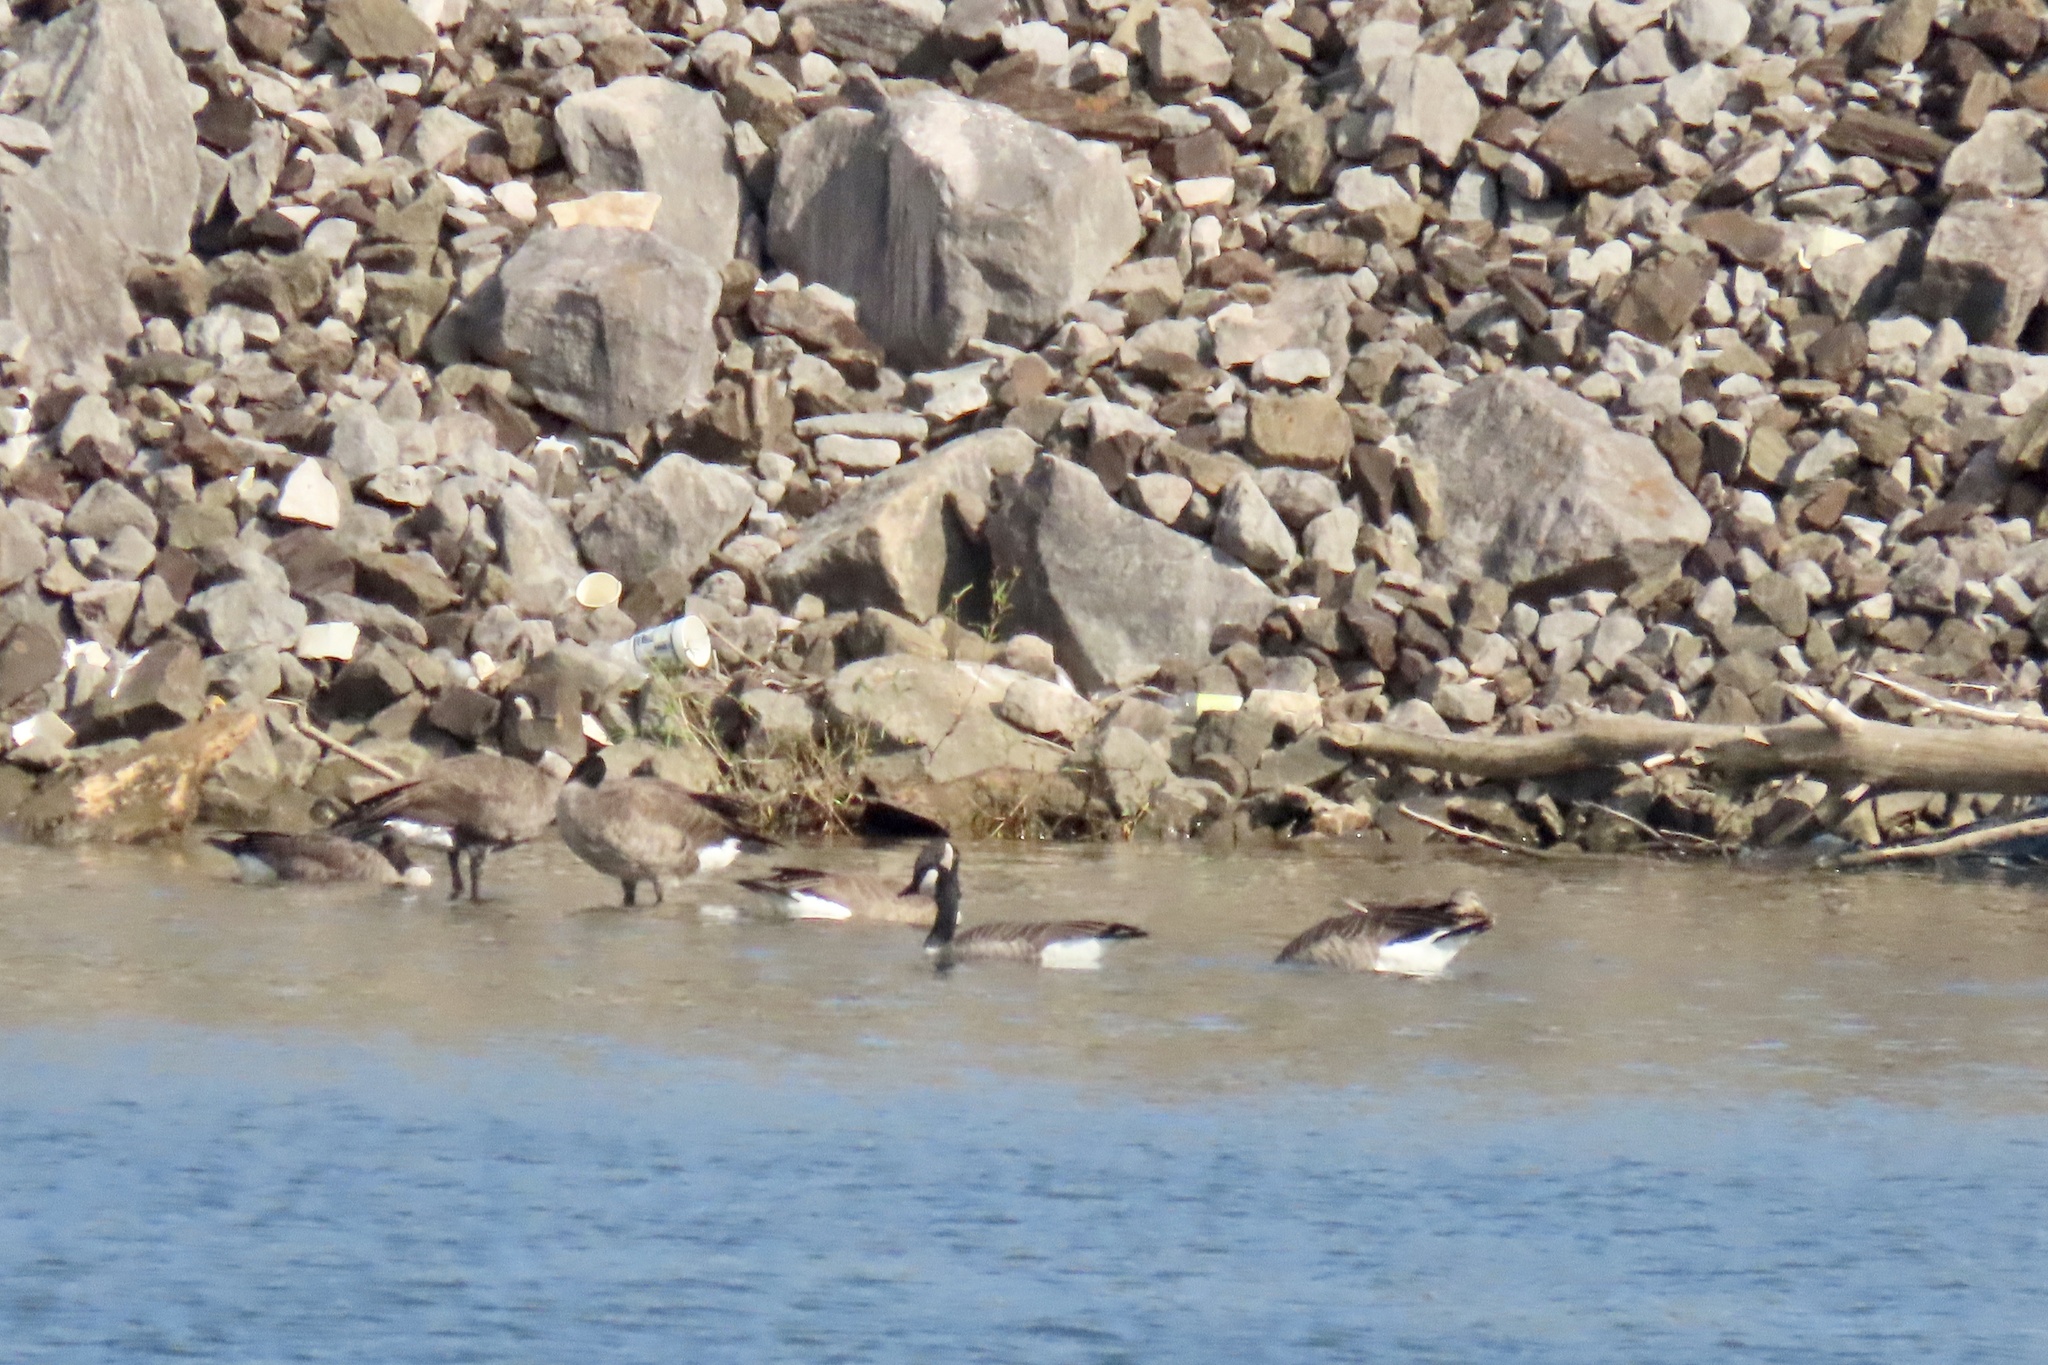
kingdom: Animalia
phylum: Chordata
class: Aves
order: Anseriformes
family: Anatidae
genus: Branta
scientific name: Branta canadensis
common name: Canada goose
